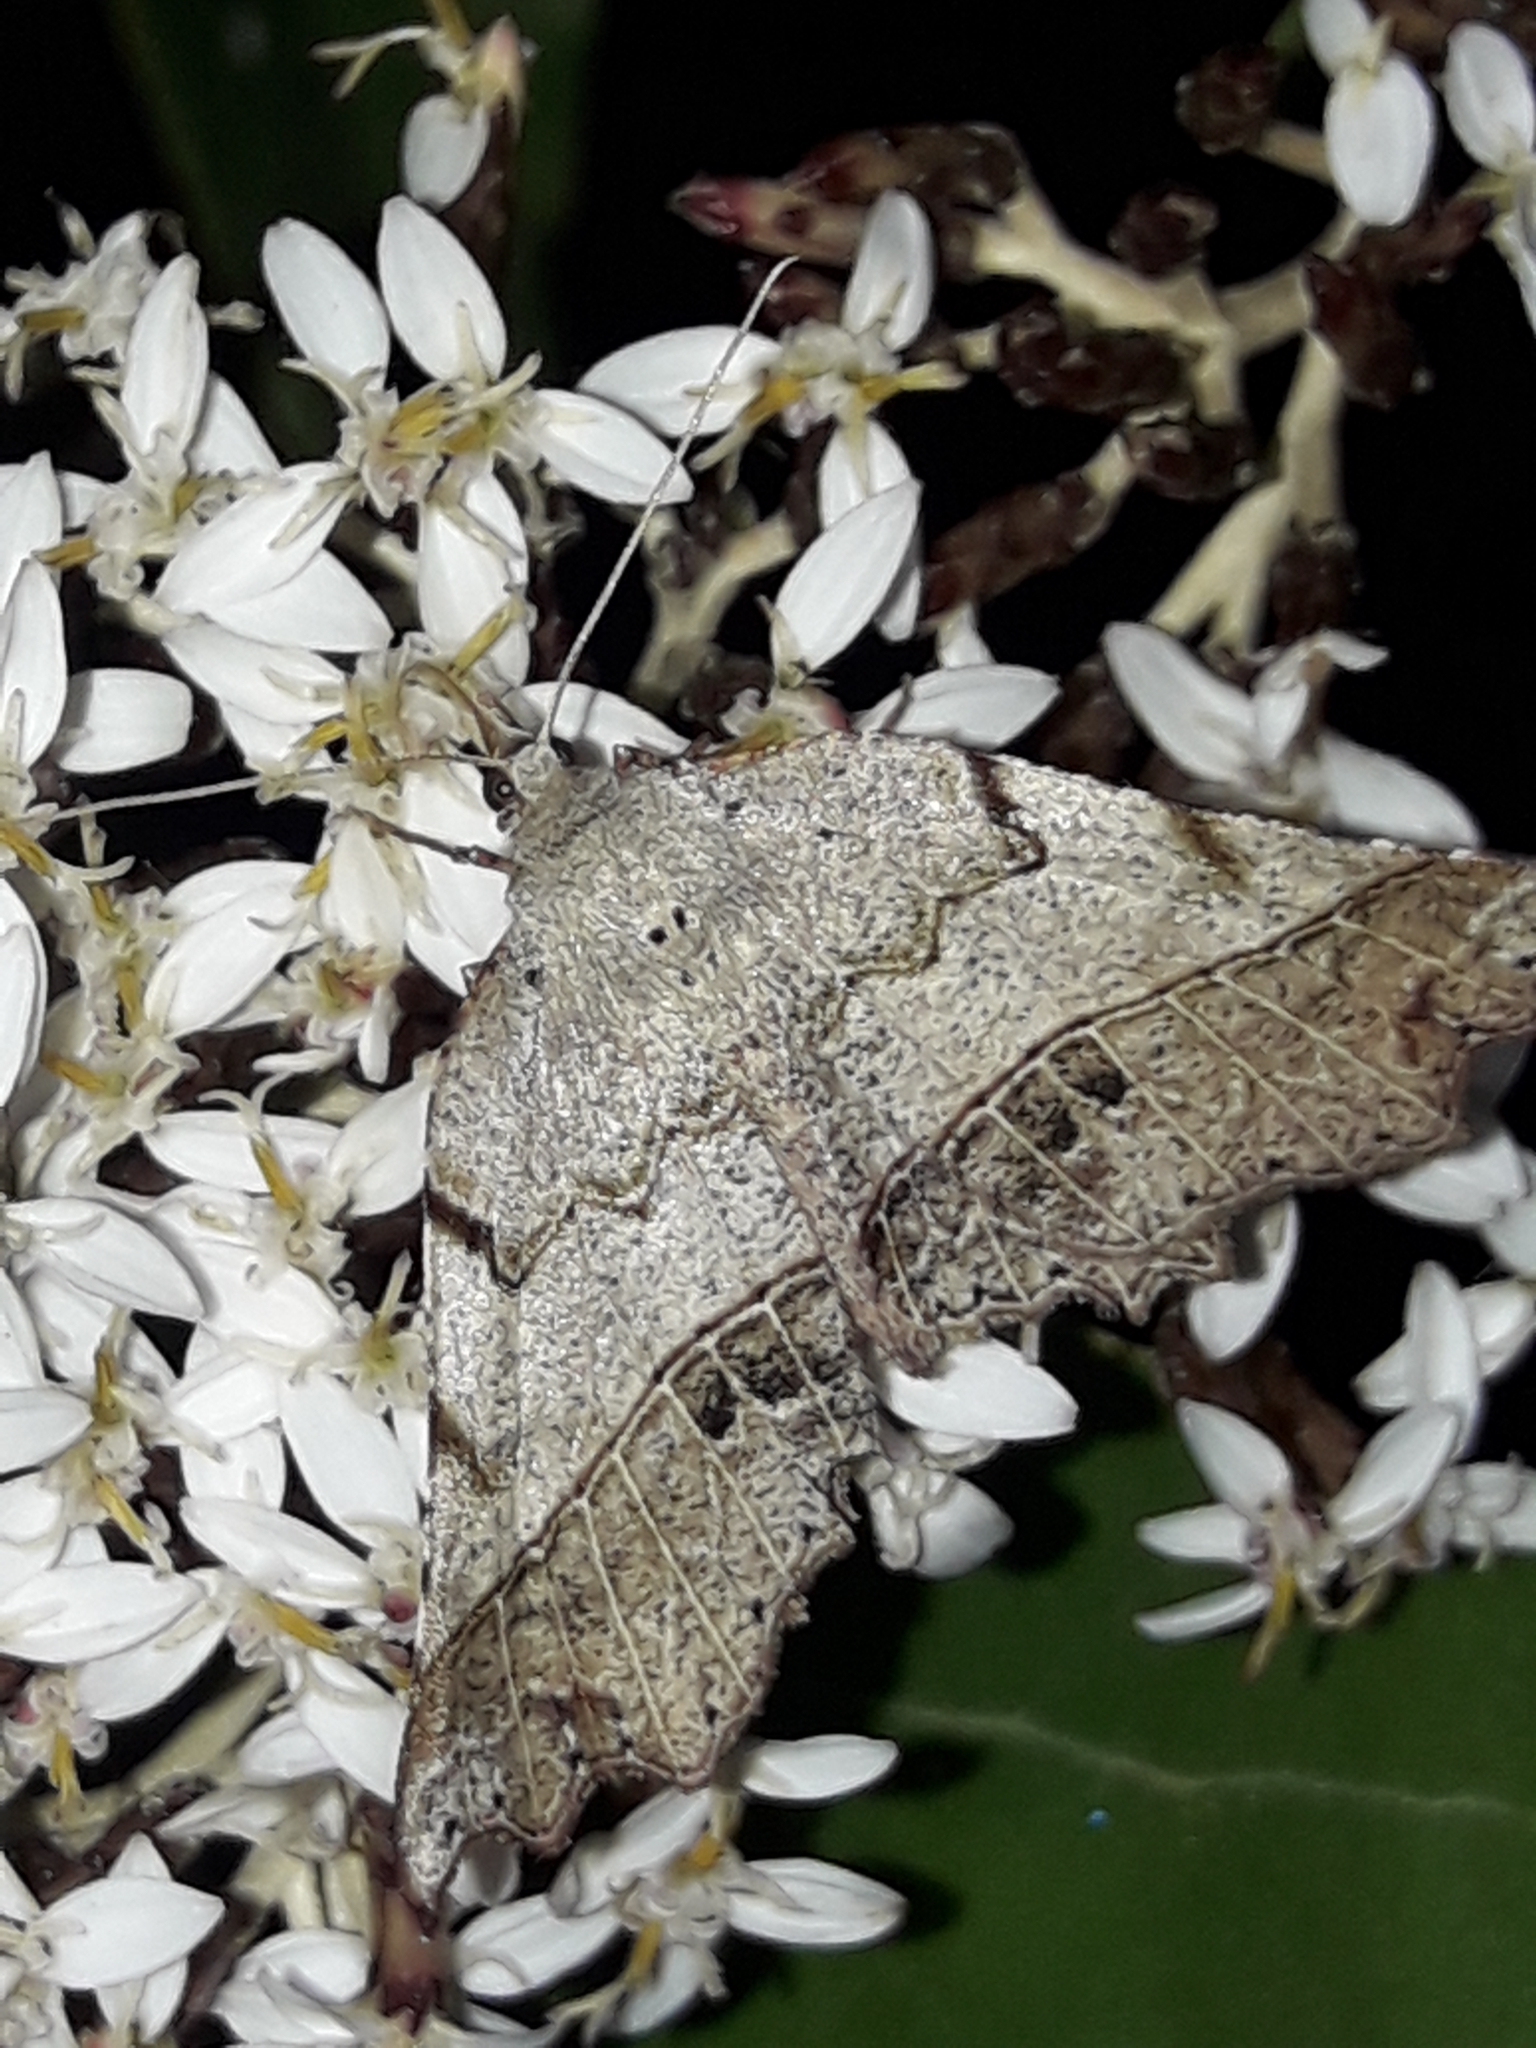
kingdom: Animalia
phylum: Arthropoda
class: Insecta
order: Lepidoptera
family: Geometridae
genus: Ischalis
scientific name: Ischalis gallaria
